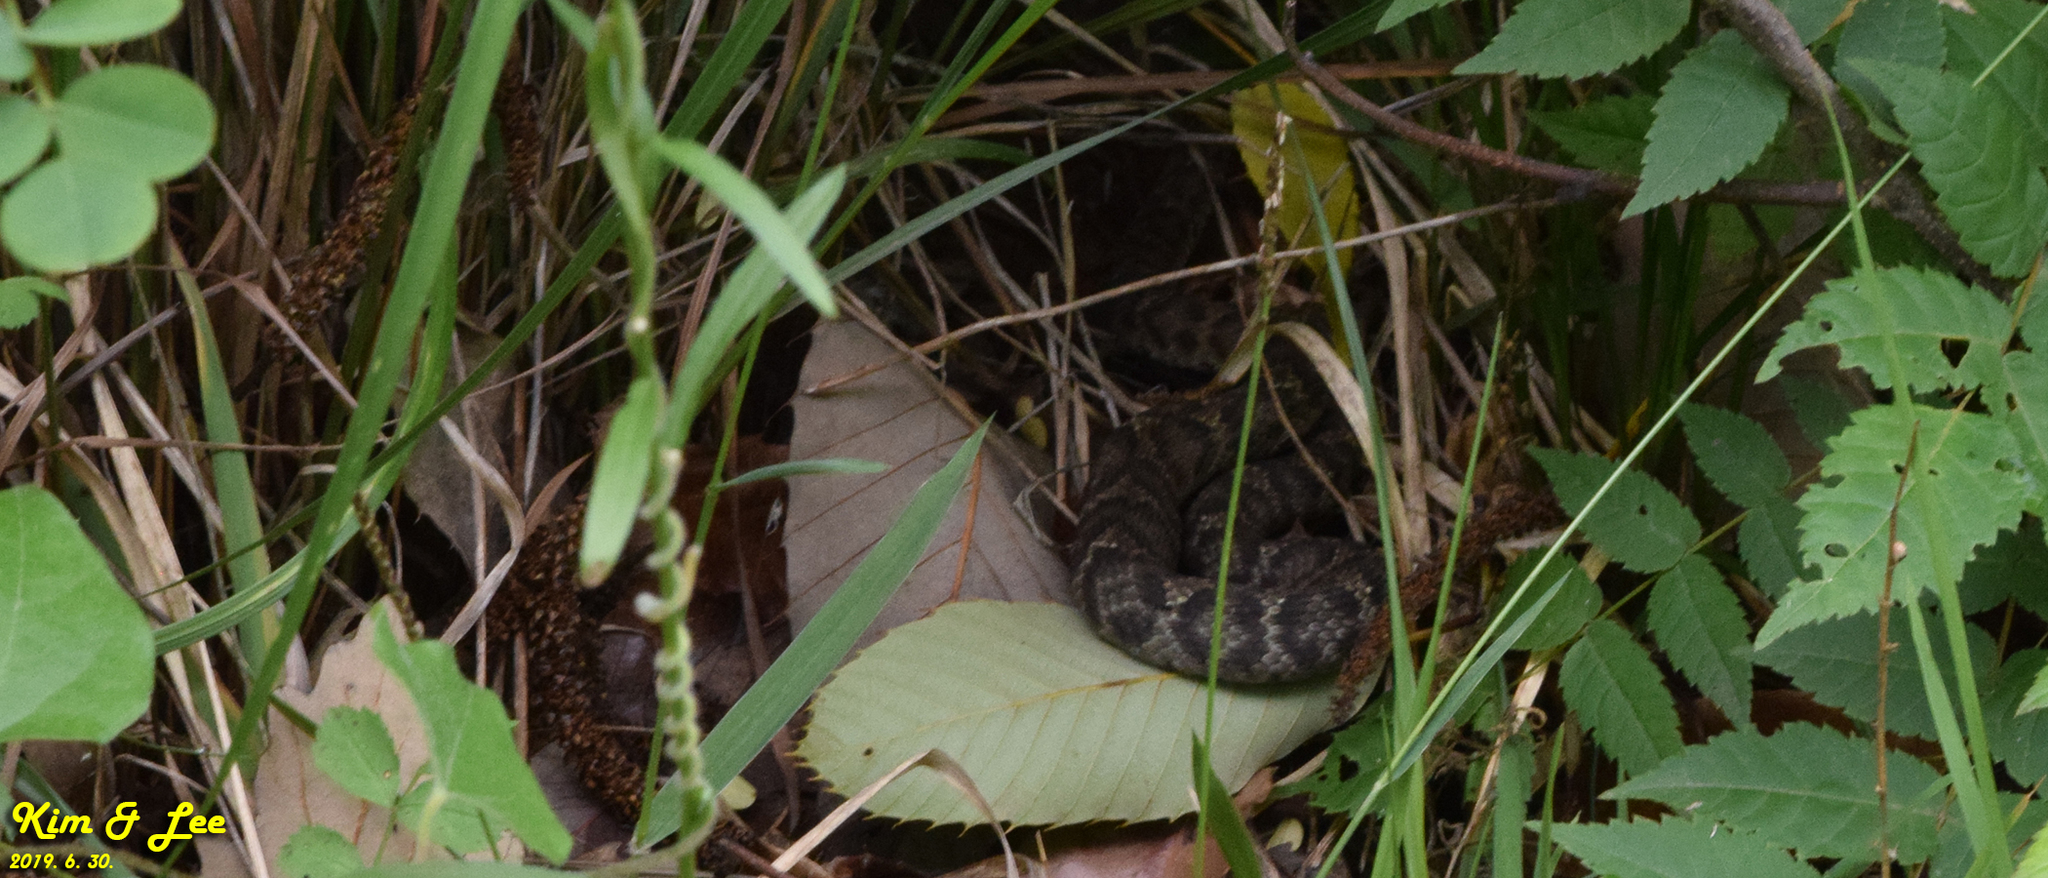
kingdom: Animalia
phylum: Chordata
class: Squamata
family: Viperidae
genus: Gloydius
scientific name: Gloydius ussuriensis
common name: Ussuri mamushi
